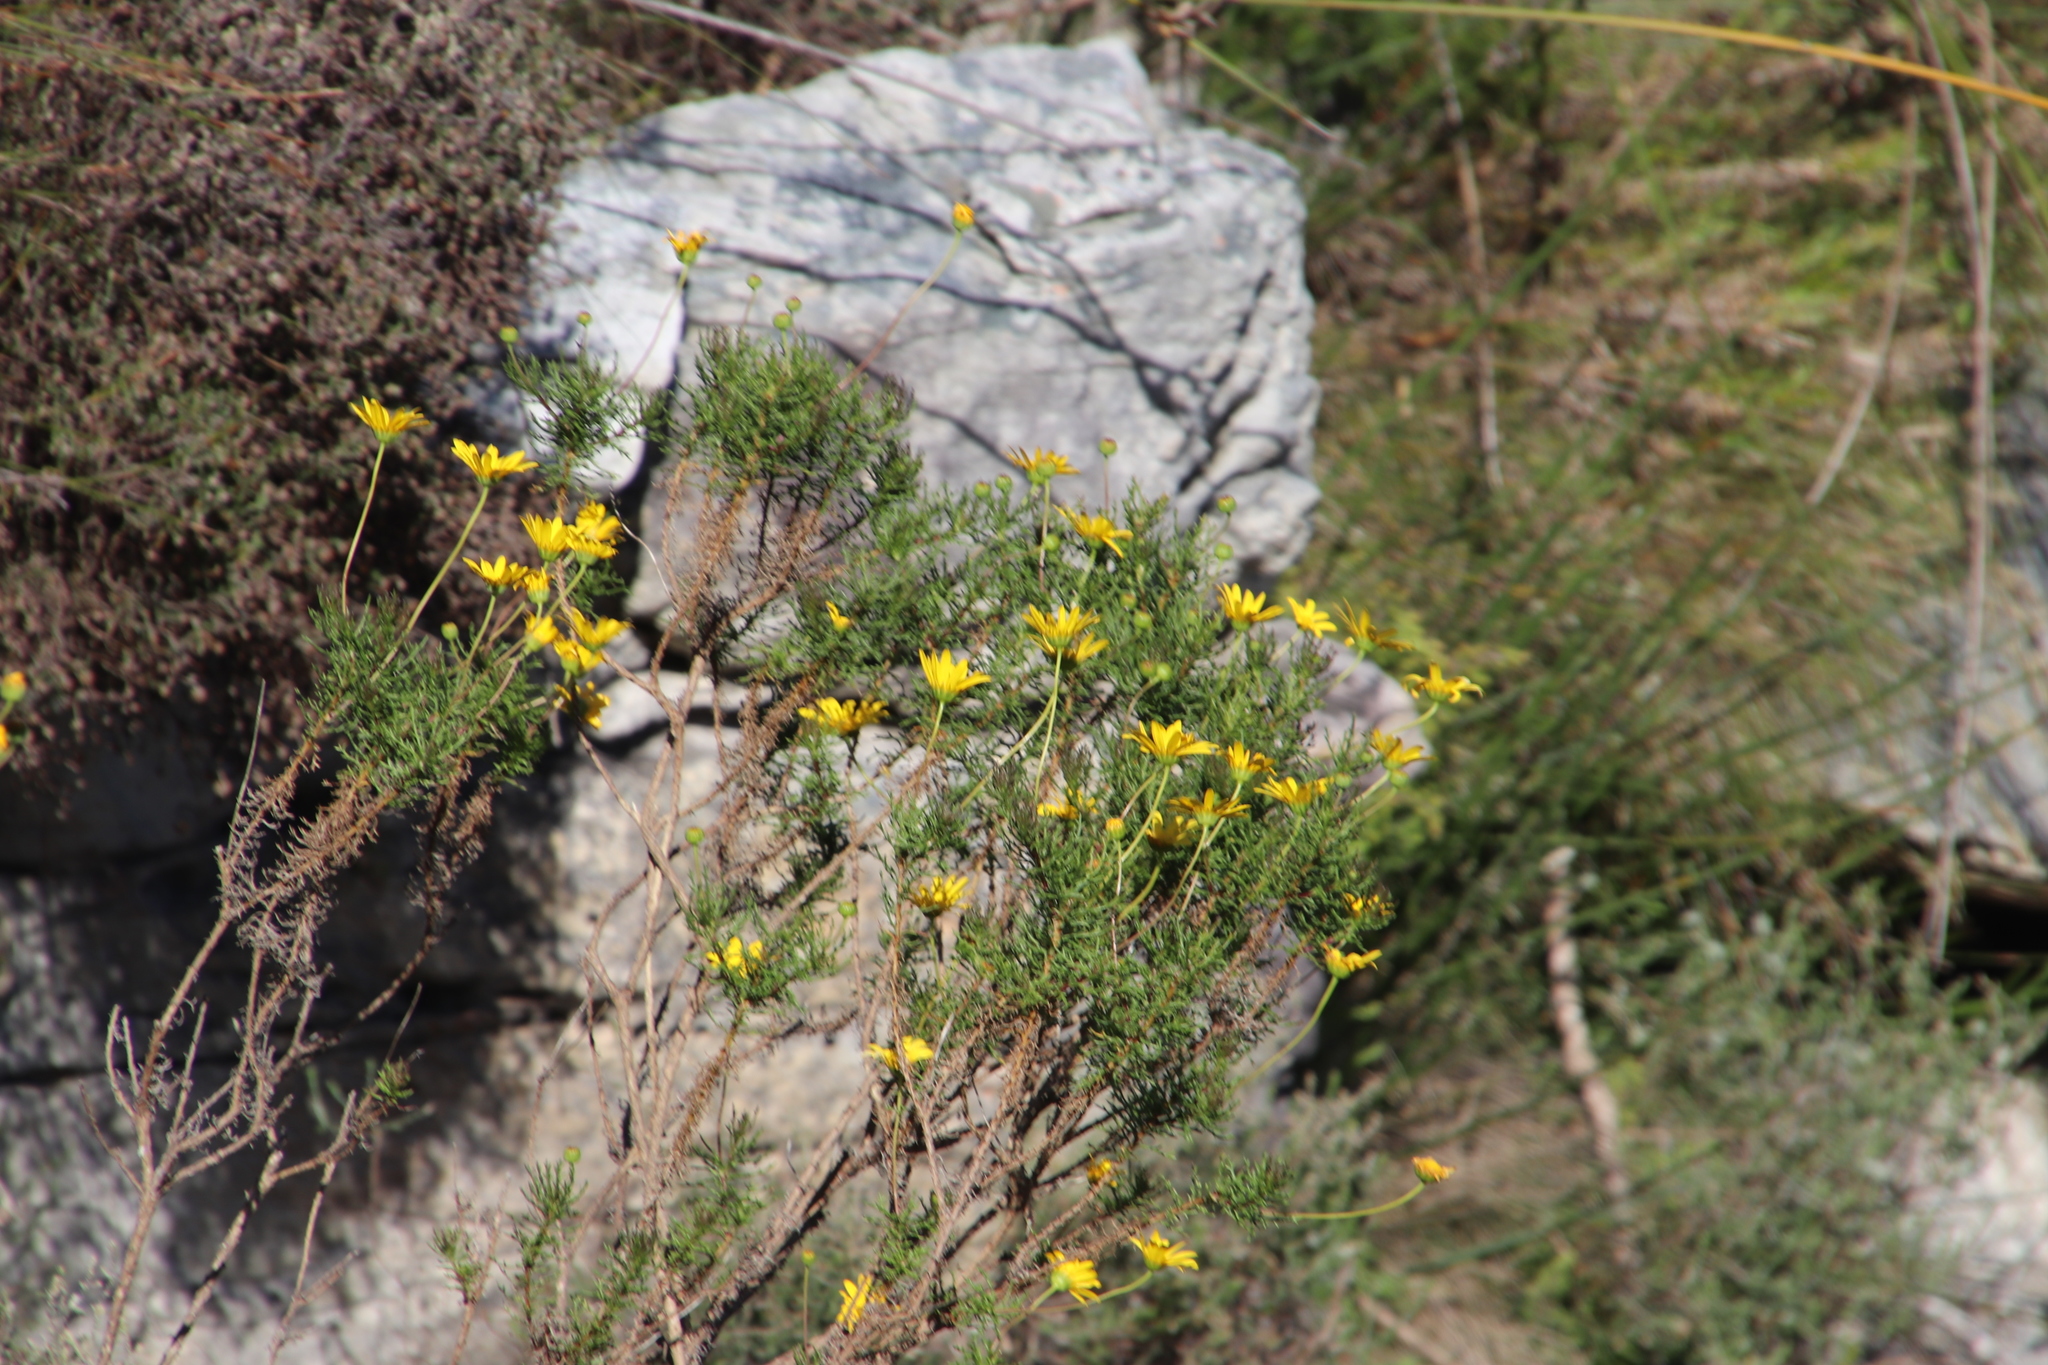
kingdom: Plantae
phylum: Tracheophyta
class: Magnoliopsida
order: Asterales
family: Asteraceae
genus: Euryops
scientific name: Euryops abrotanifolius
